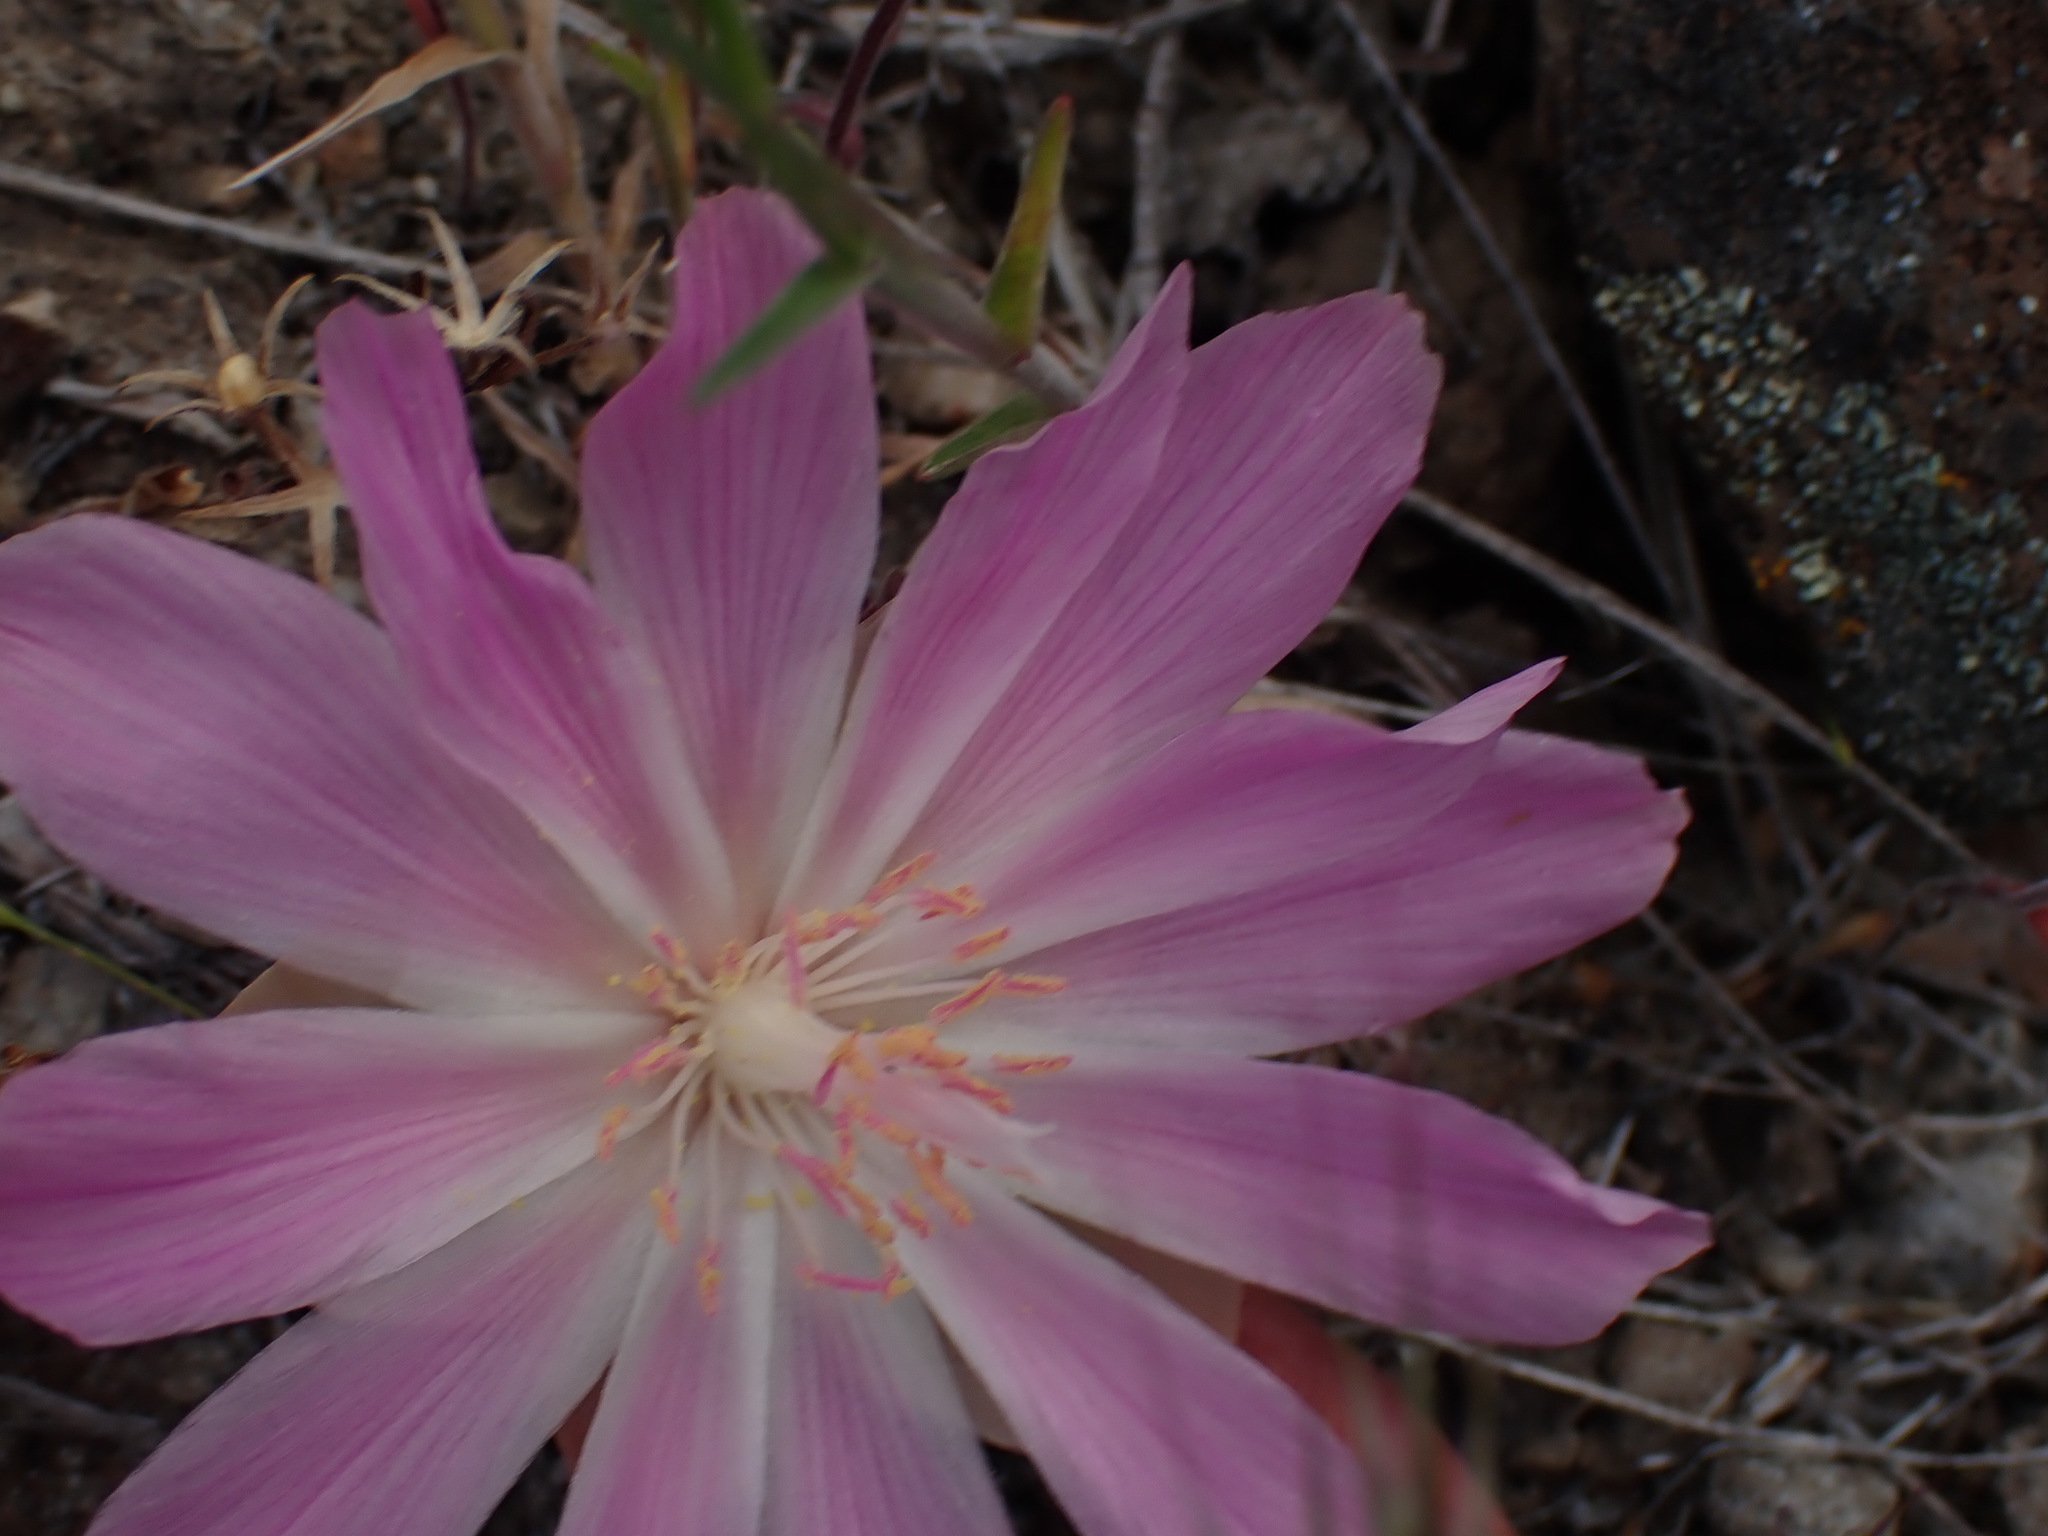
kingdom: Plantae
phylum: Tracheophyta
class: Magnoliopsida
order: Caryophyllales
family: Montiaceae
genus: Lewisia
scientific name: Lewisia rediviva
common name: Bitter-root
